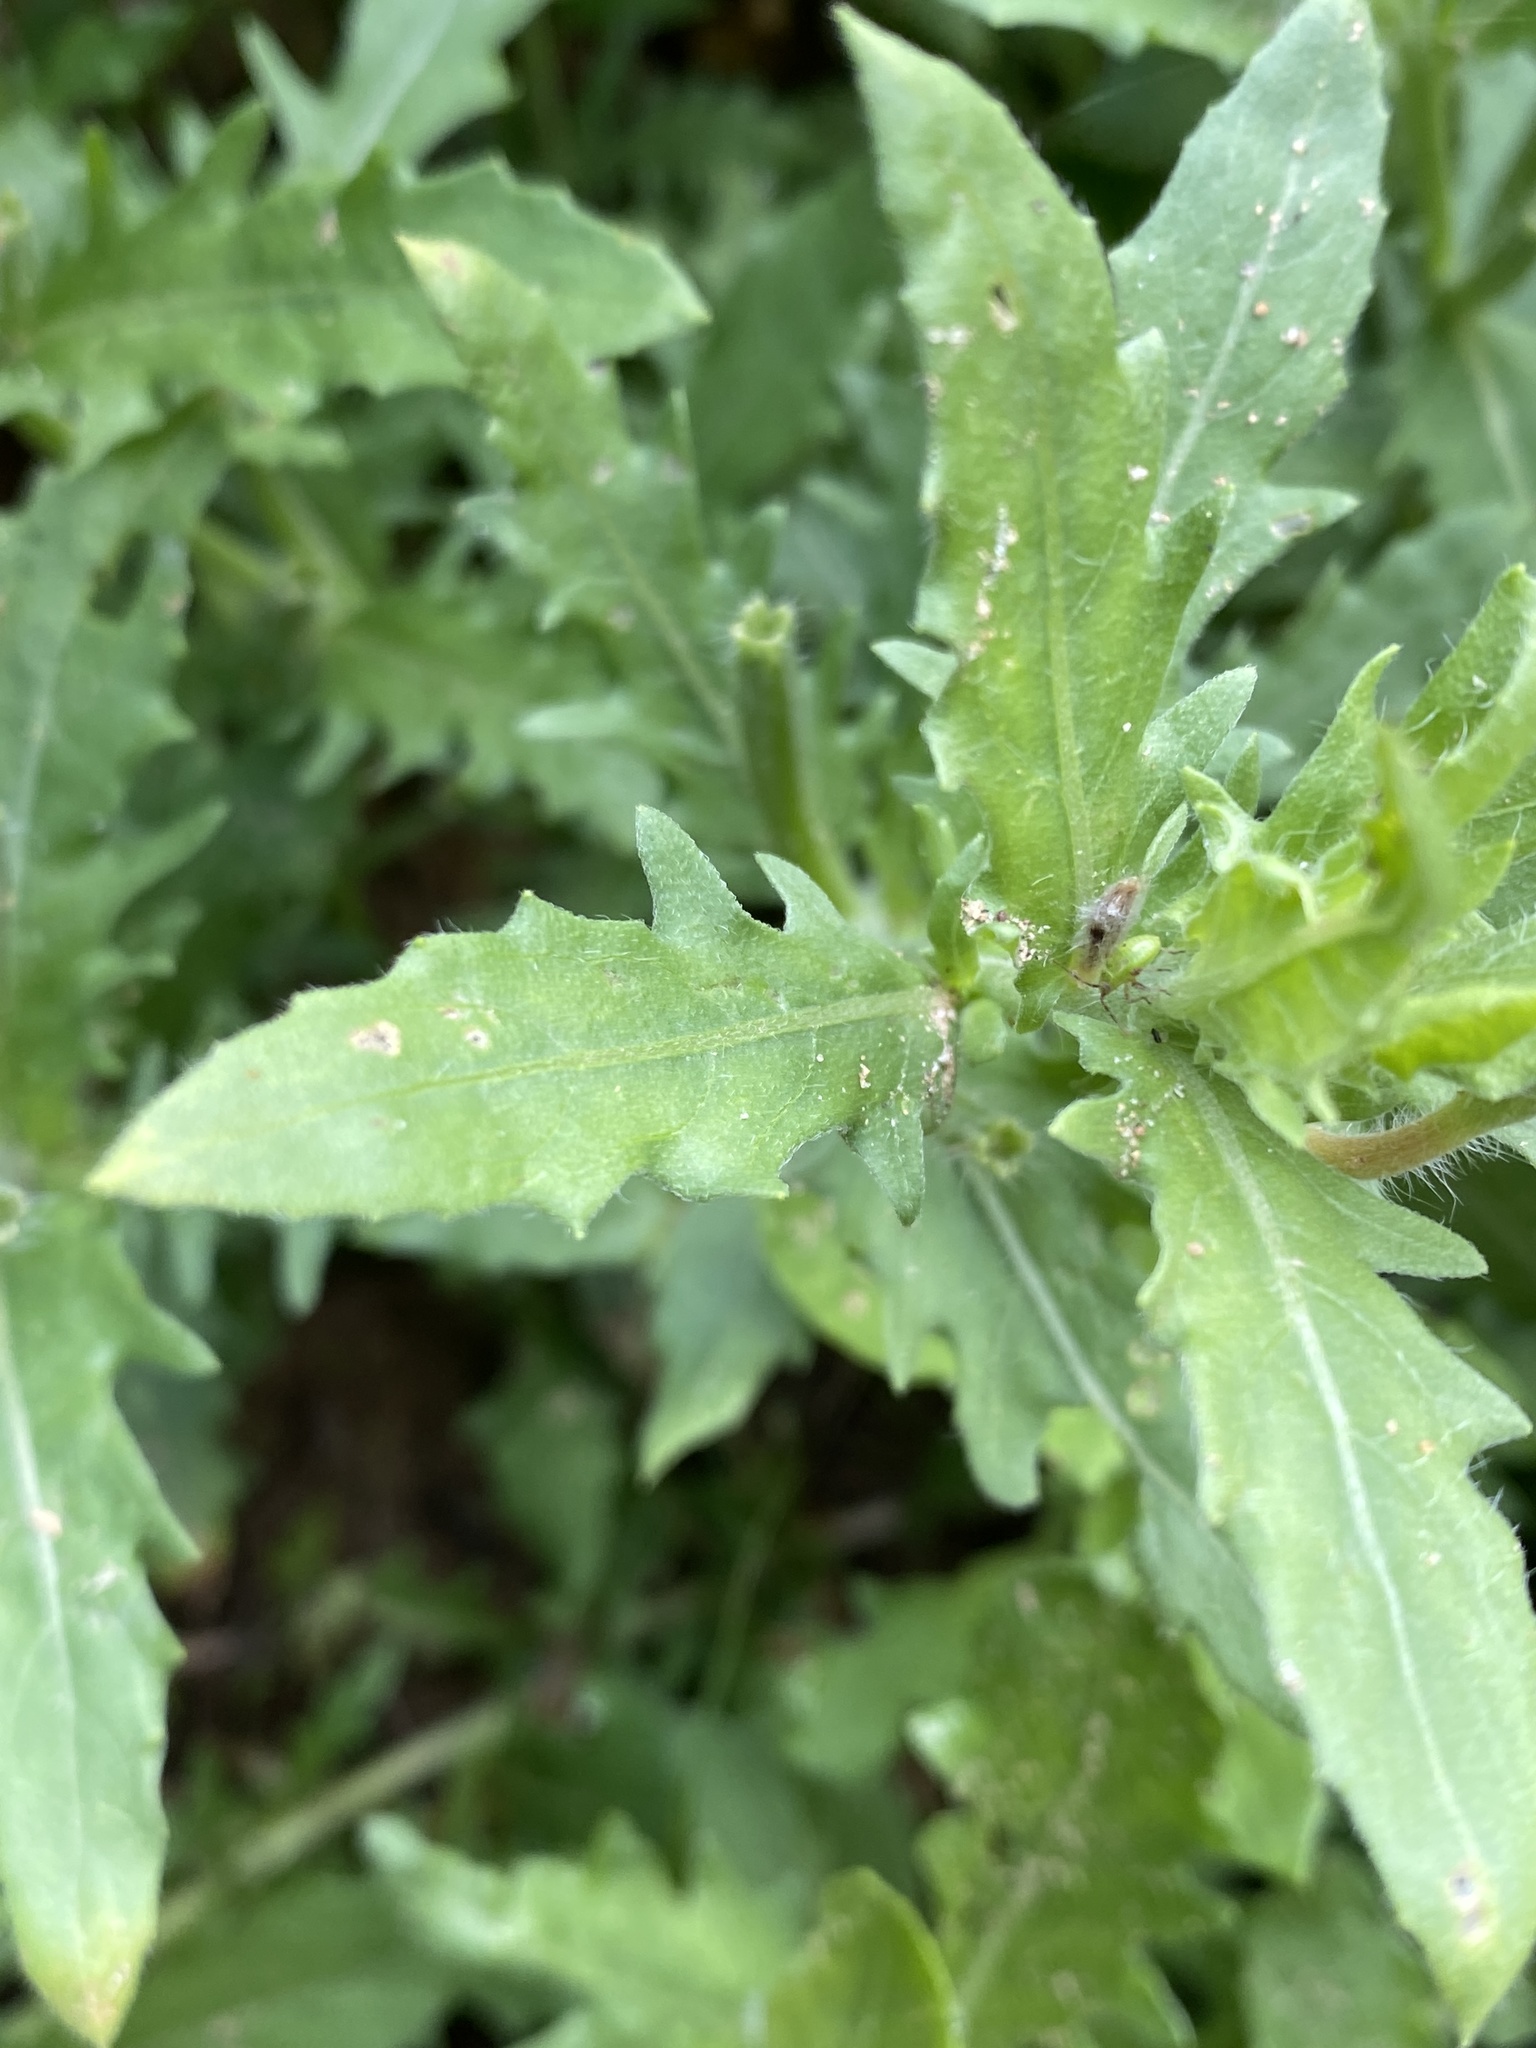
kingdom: Plantae
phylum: Tracheophyta
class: Magnoliopsida
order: Myrtales
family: Onagraceae
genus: Oenothera
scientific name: Oenothera laciniata
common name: Cut-leaved evening-primrose
